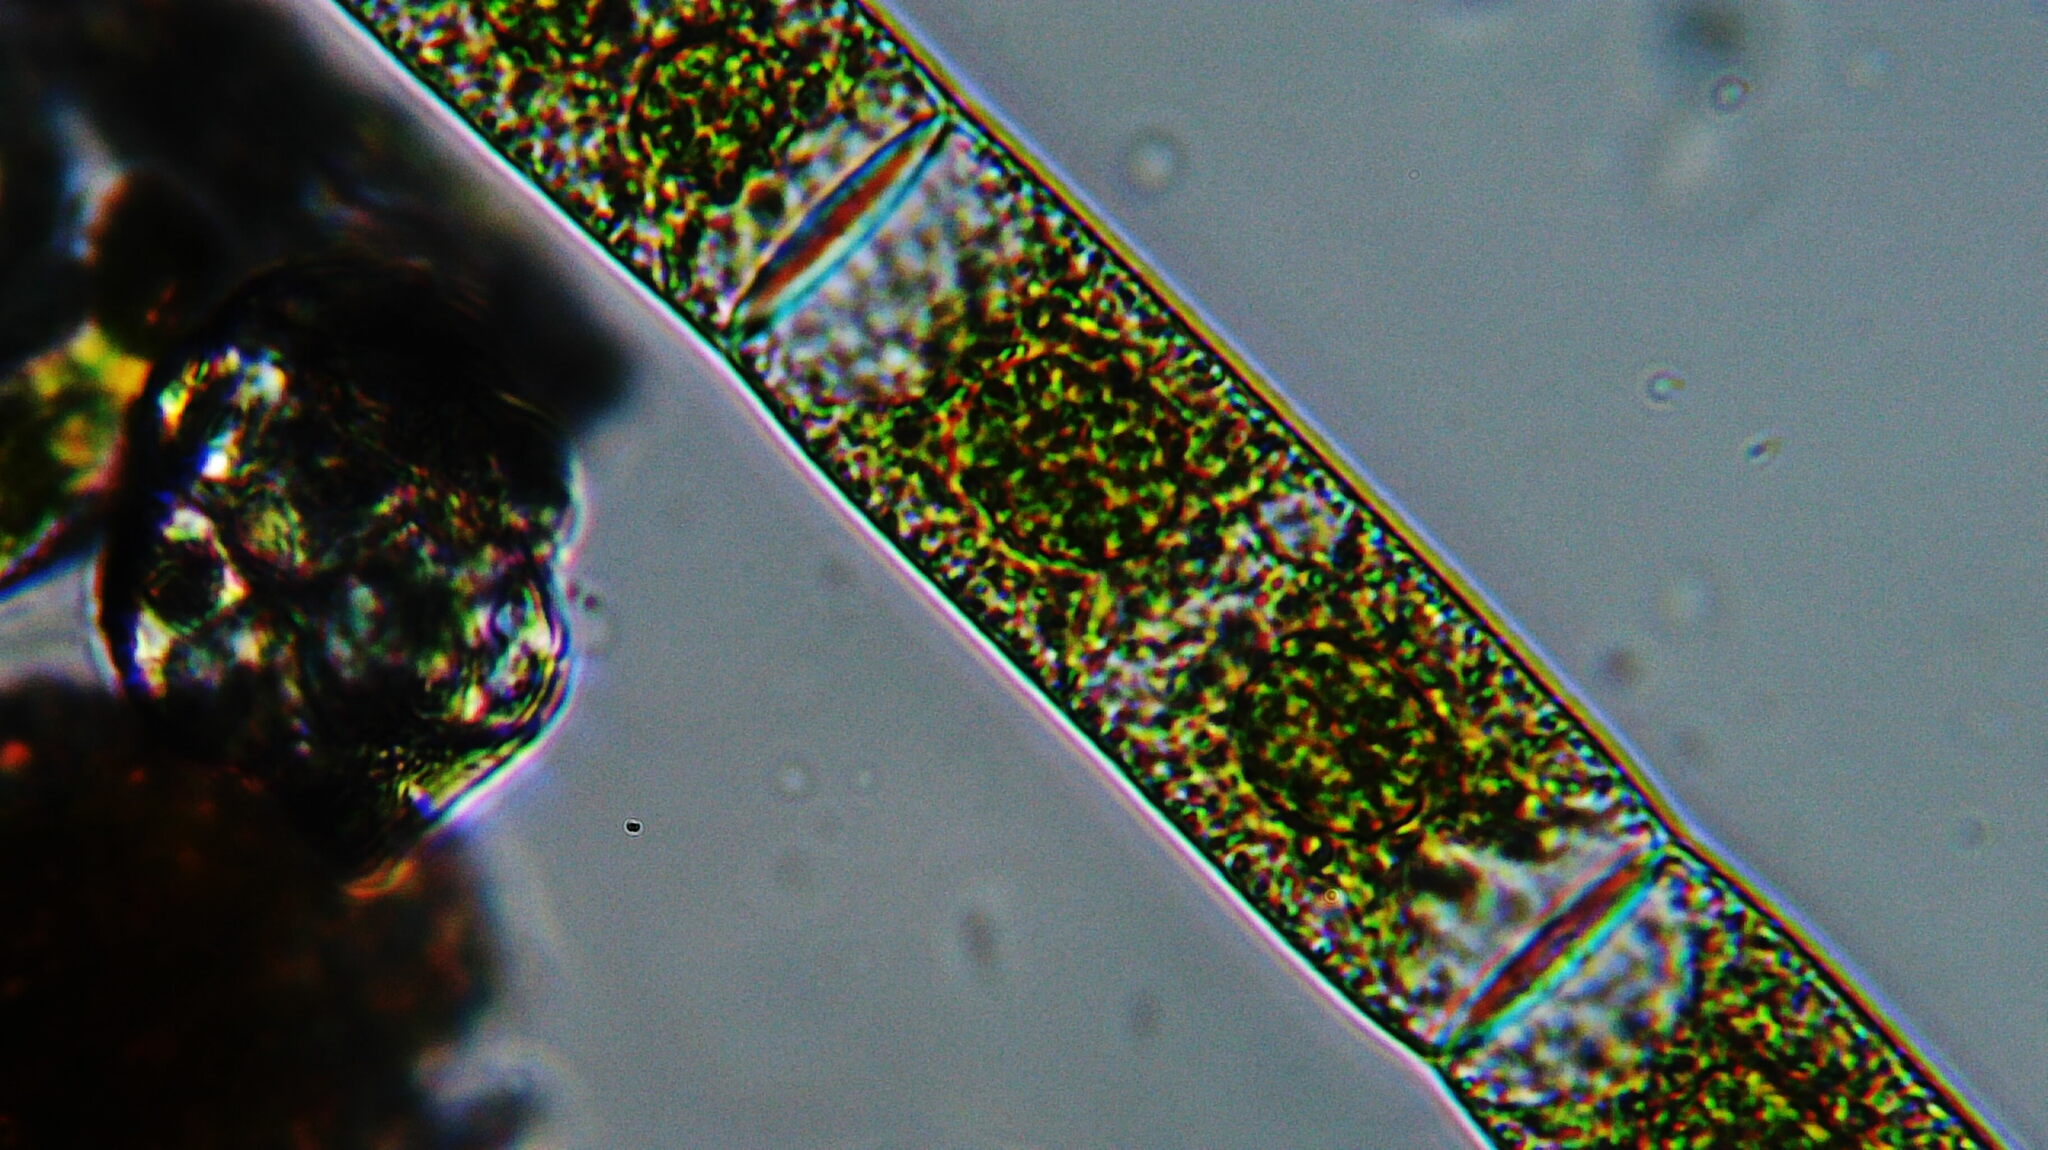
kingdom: Plantae
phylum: Charophyta
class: Zygnematophyceae
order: Zygnematales
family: Zygnemataceae
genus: Zygnema
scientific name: Zygnema
